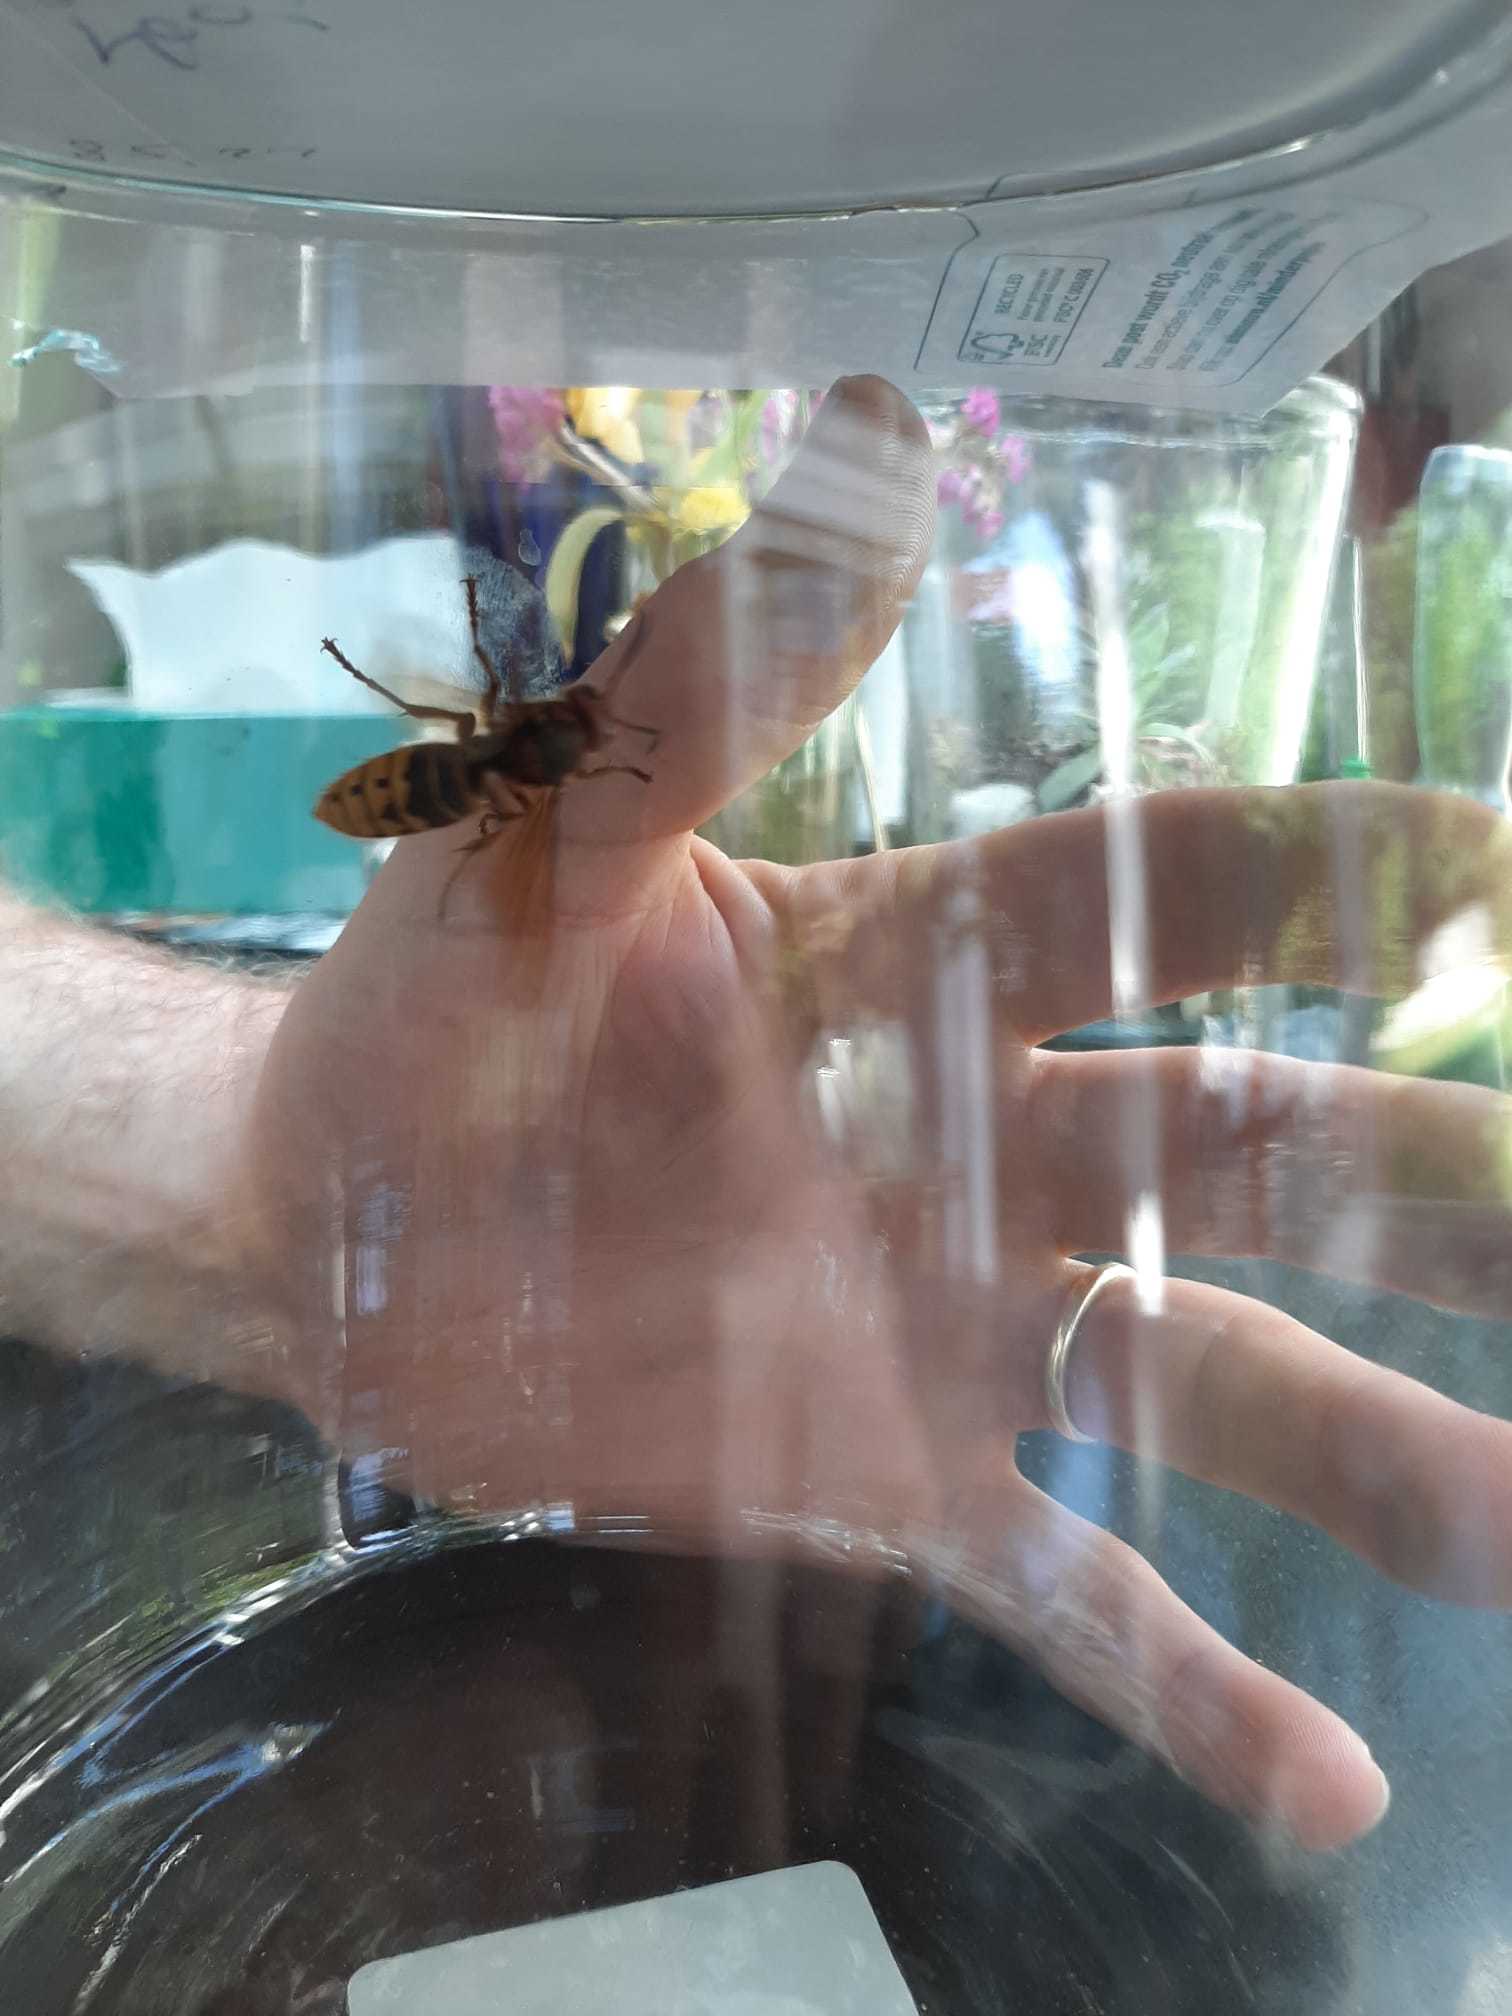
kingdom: Animalia
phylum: Arthropoda
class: Insecta
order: Hymenoptera
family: Vespidae
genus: Vespa
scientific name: Vespa crabro
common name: Hornet
